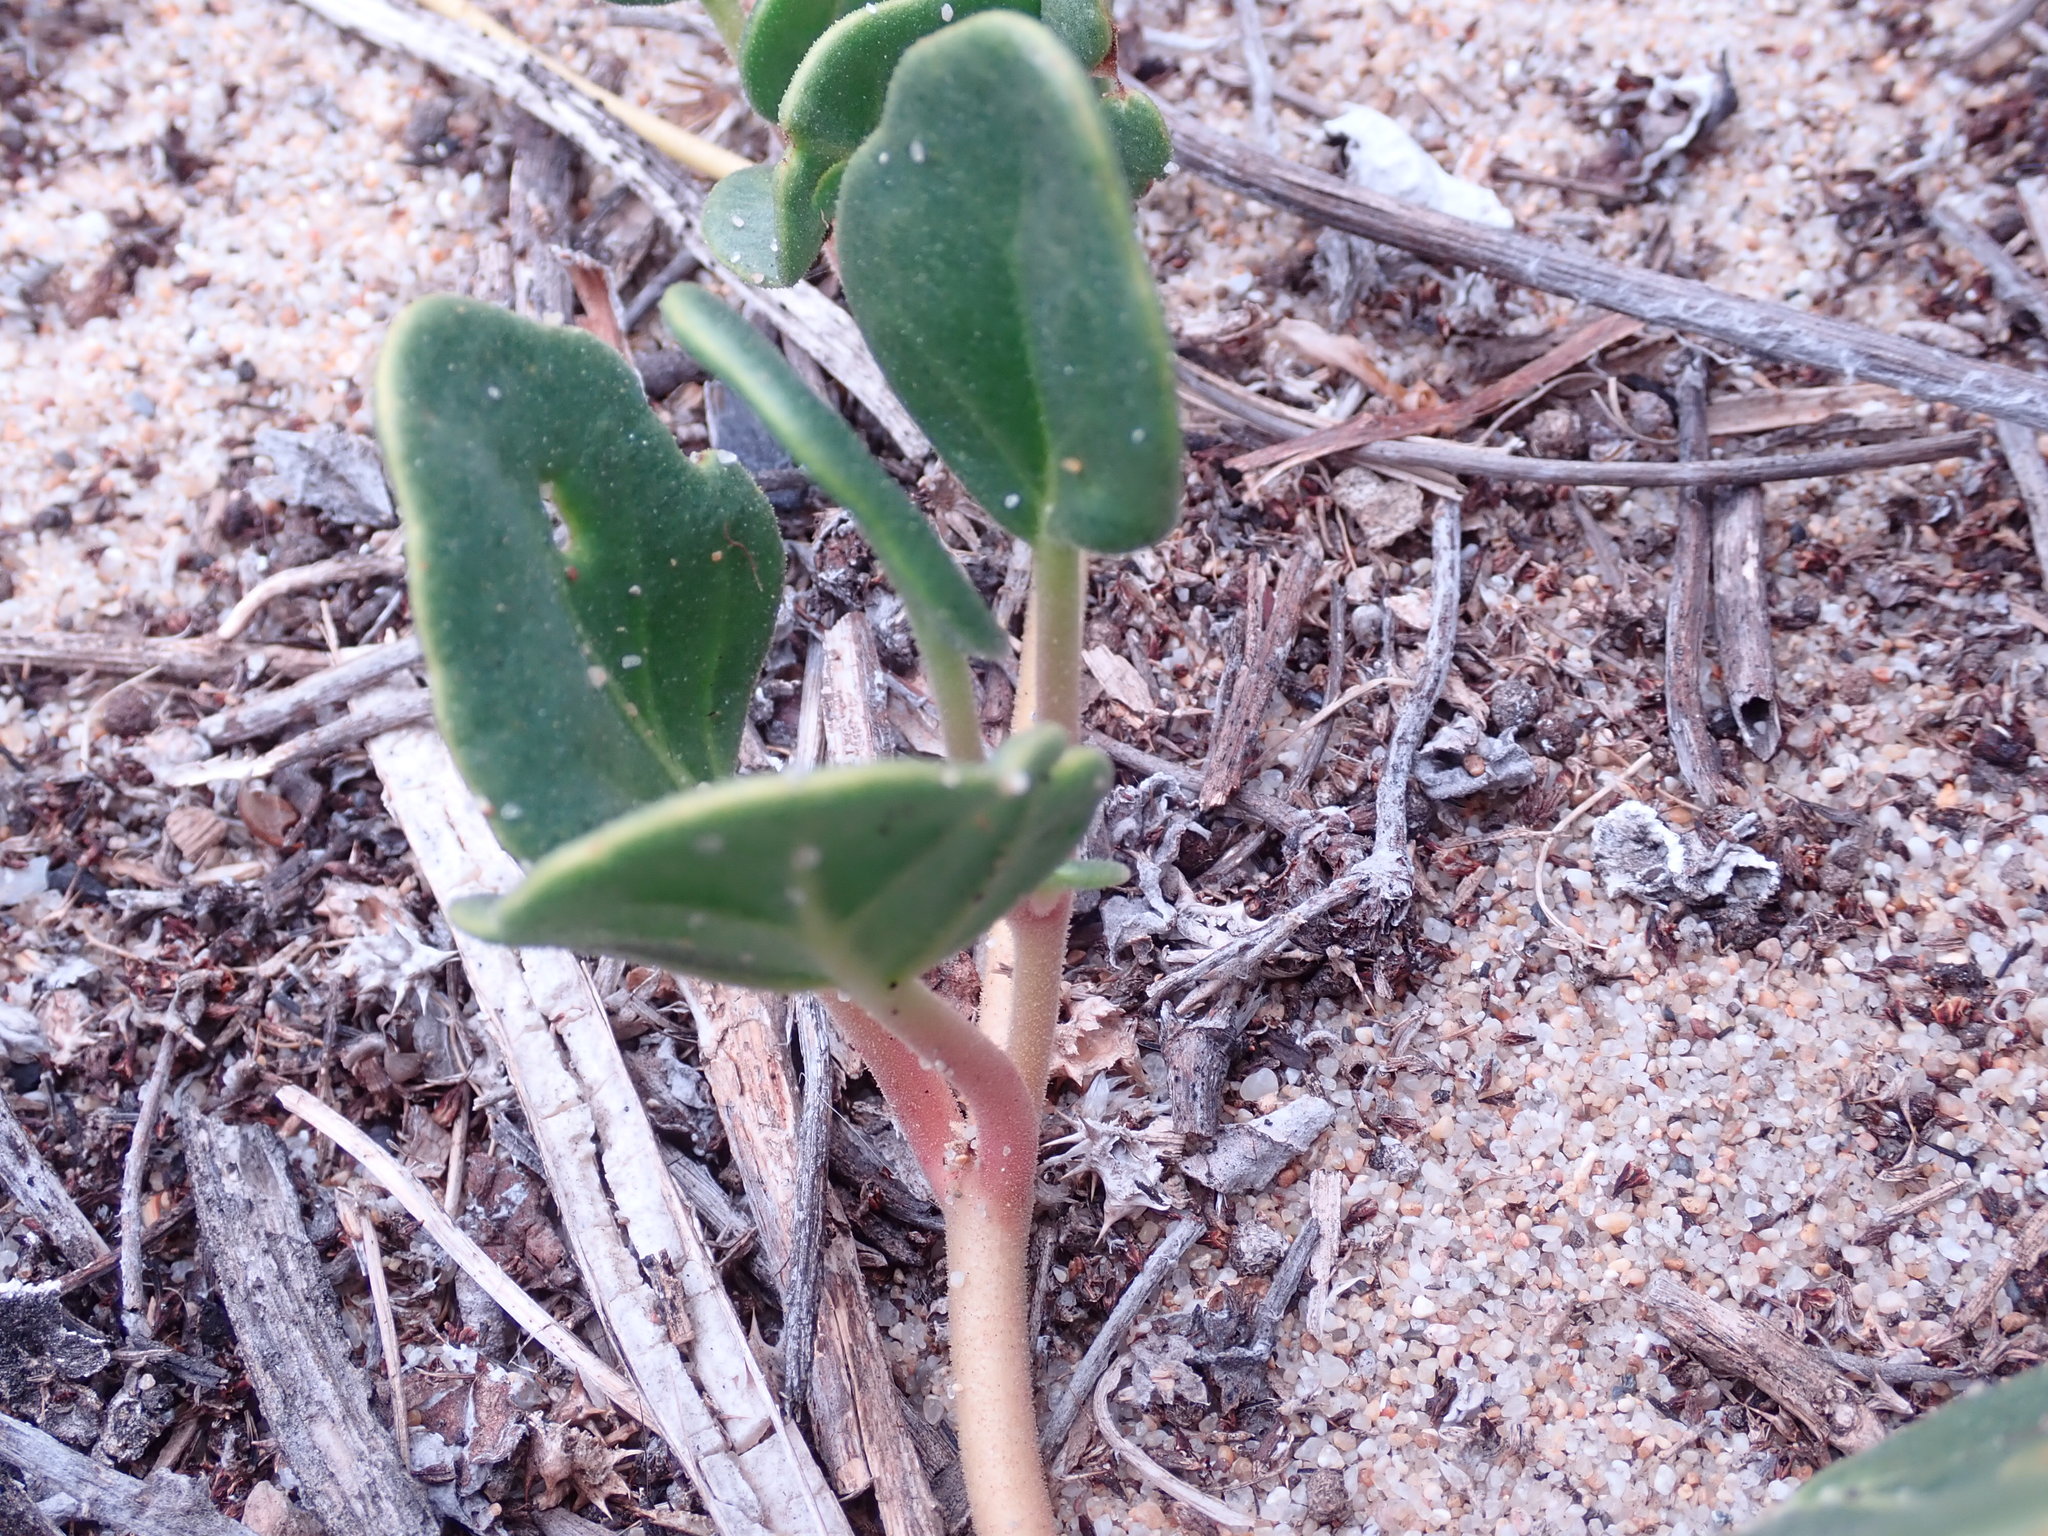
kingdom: Plantae
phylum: Tracheophyta
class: Magnoliopsida
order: Caryophyllales
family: Nyctaginaceae
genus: Abronia
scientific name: Abronia latifolia
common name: Yellow sand-verbena
